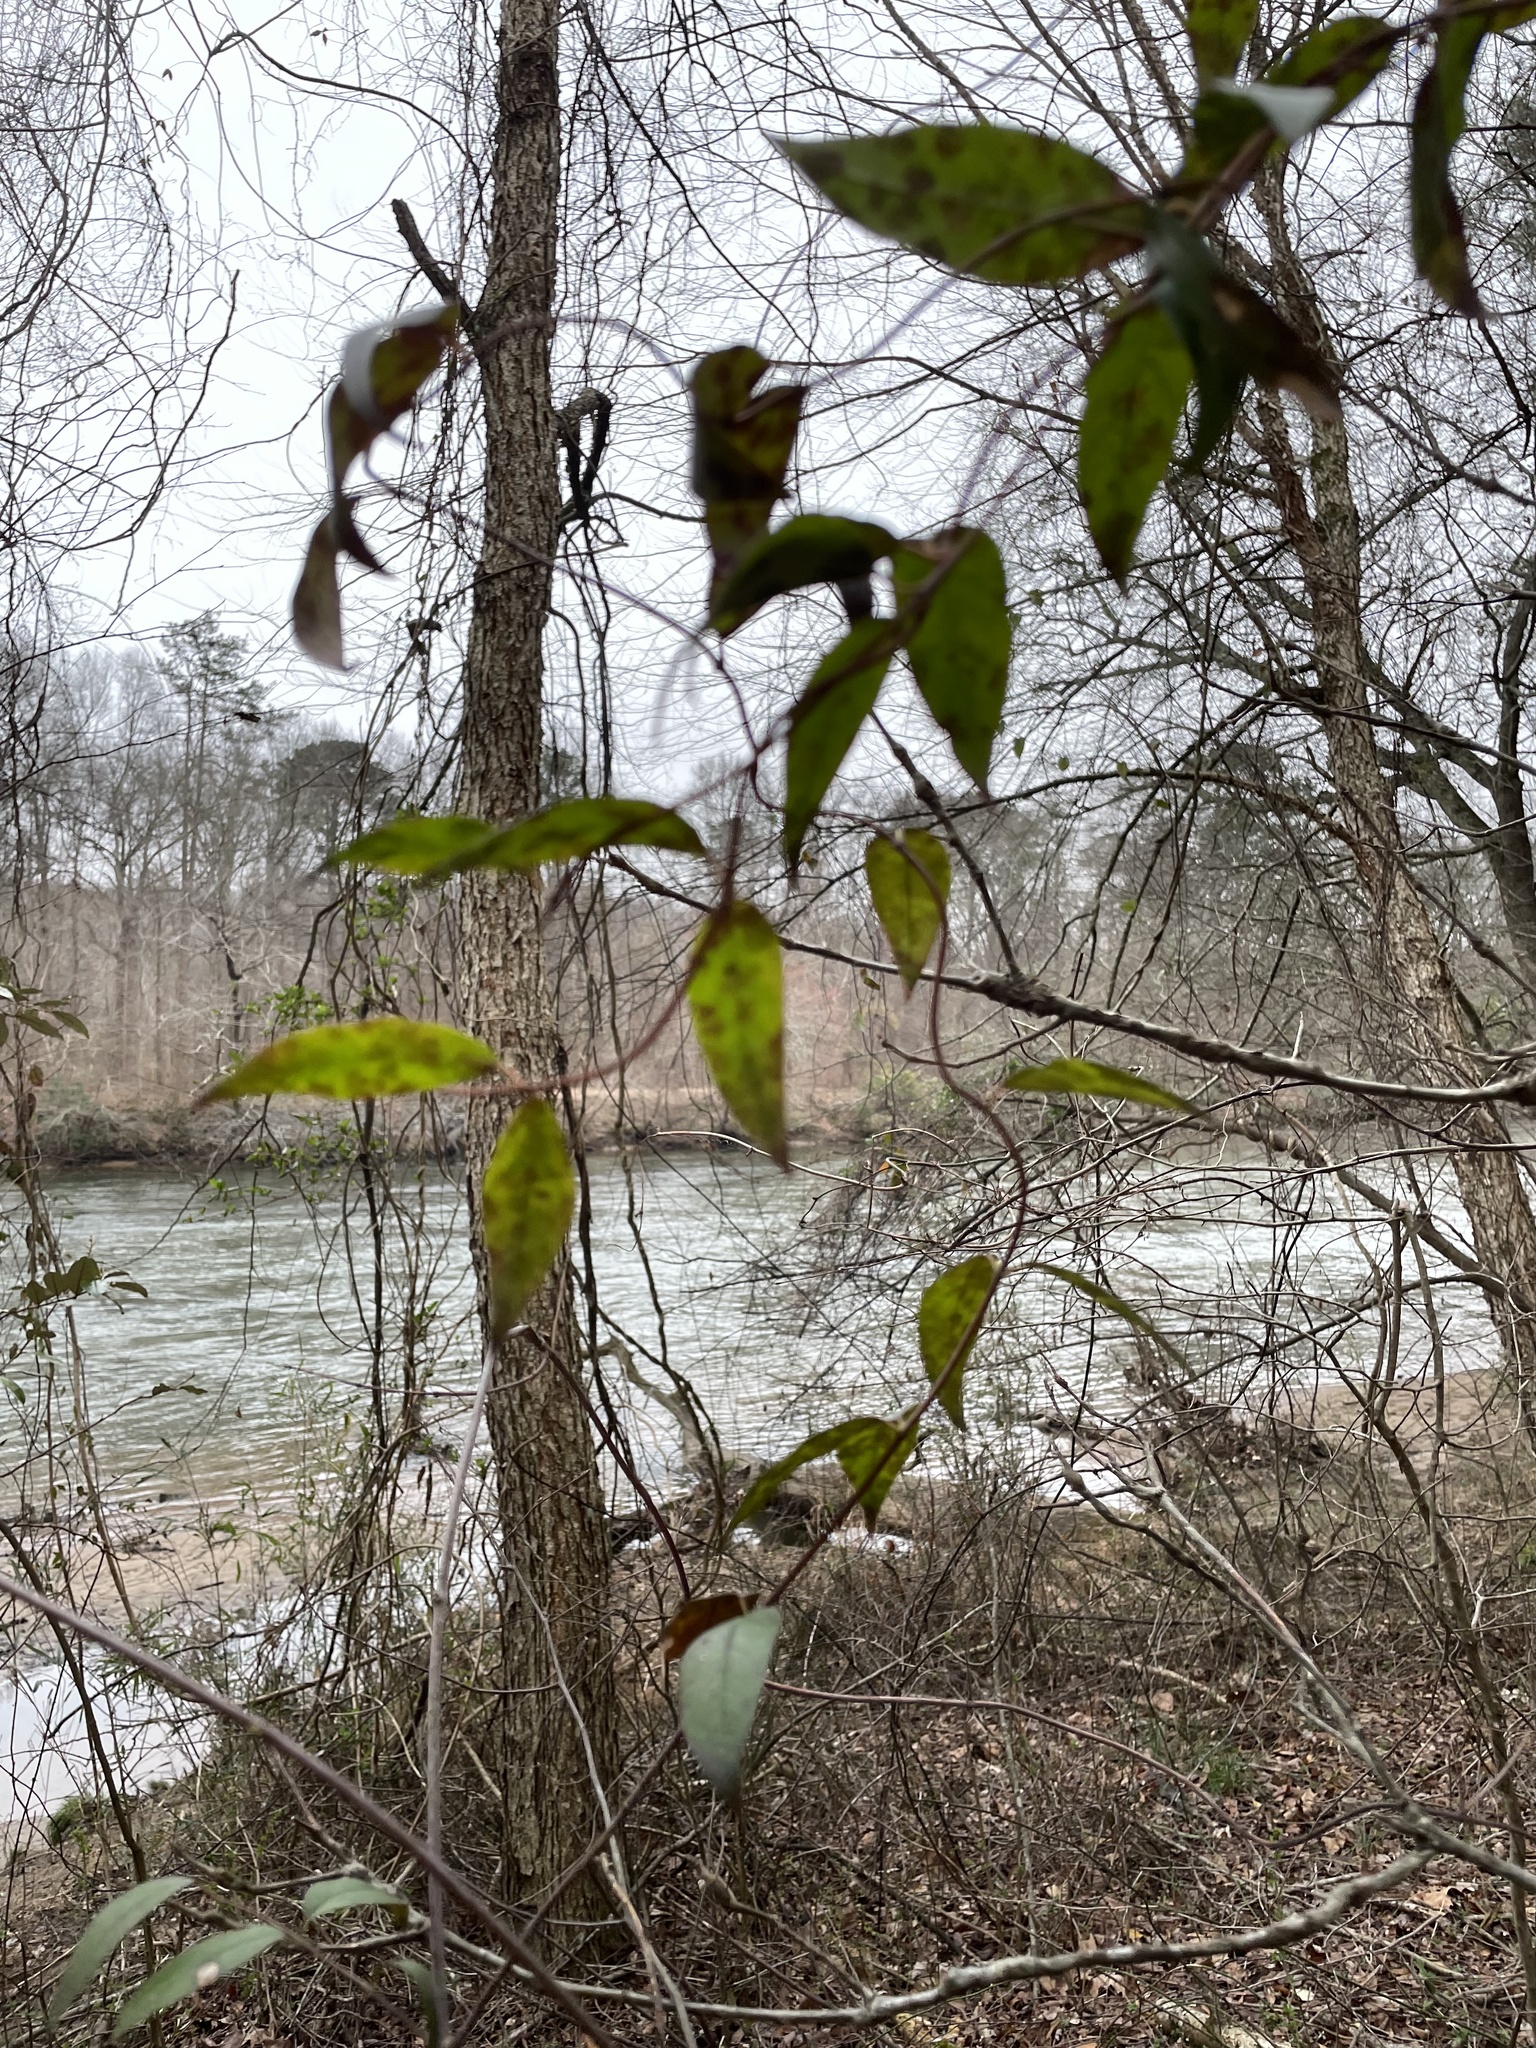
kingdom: Plantae
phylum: Tracheophyta
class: Magnoliopsida
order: Gentianales
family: Gelsemiaceae
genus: Gelsemium
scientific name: Gelsemium sempervirens
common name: Carolina-jasmine
